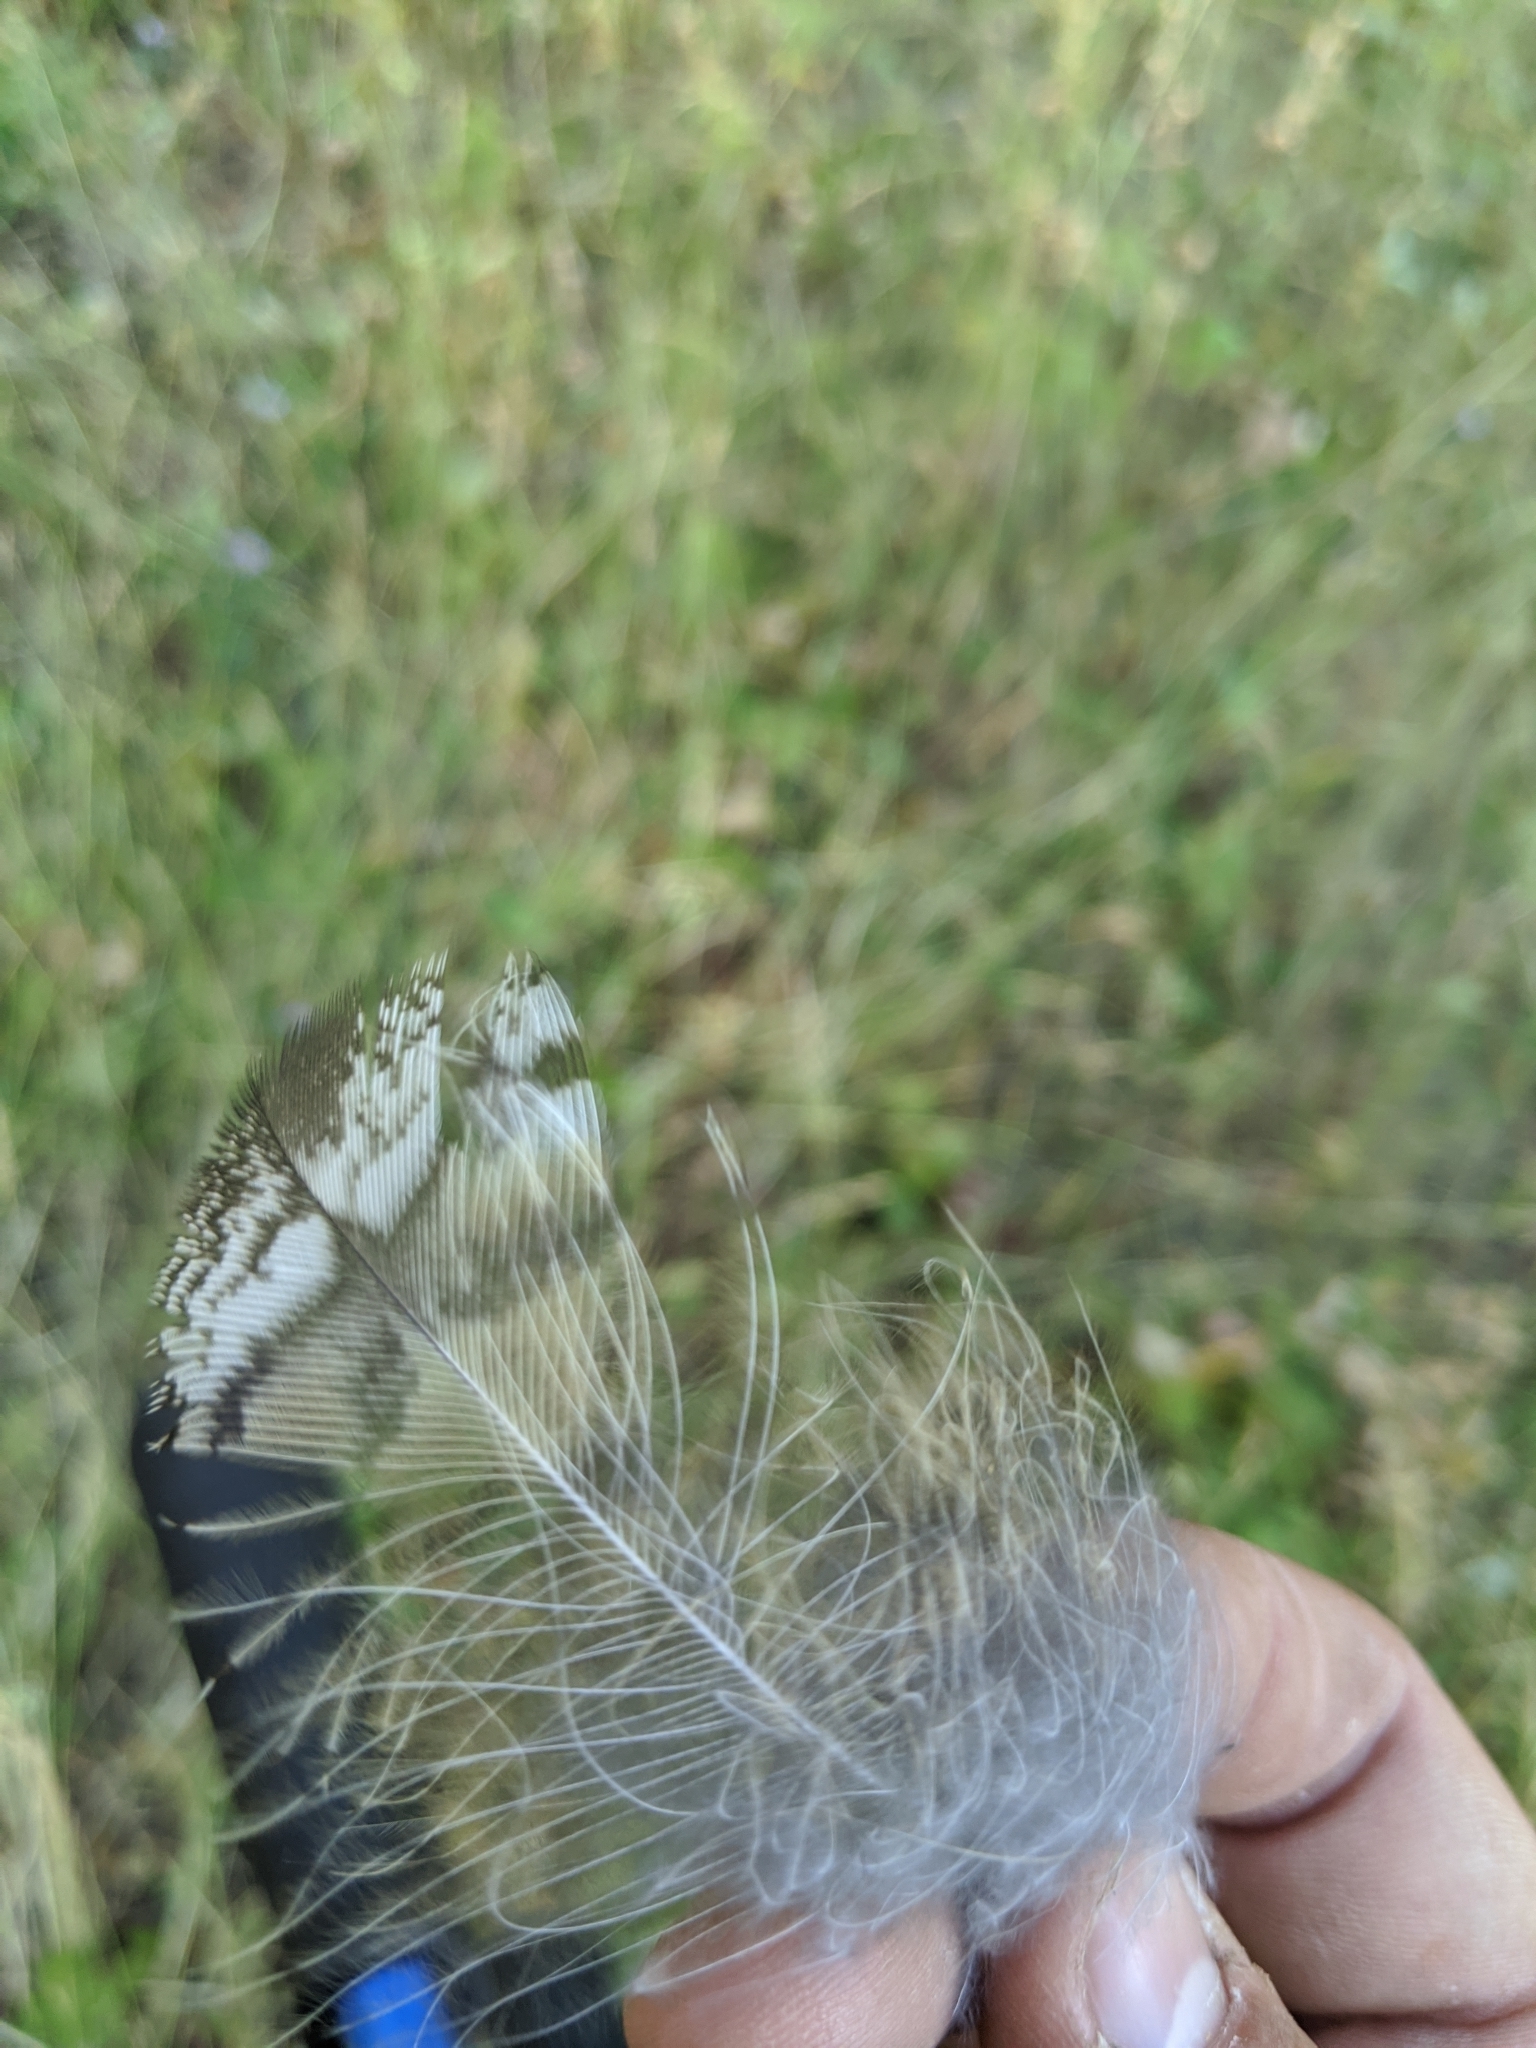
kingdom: Animalia
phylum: Chordata
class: Aves
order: Strigiformes
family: Strigidae
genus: Bubo
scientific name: Bubo virginianus
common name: Great horned owl
